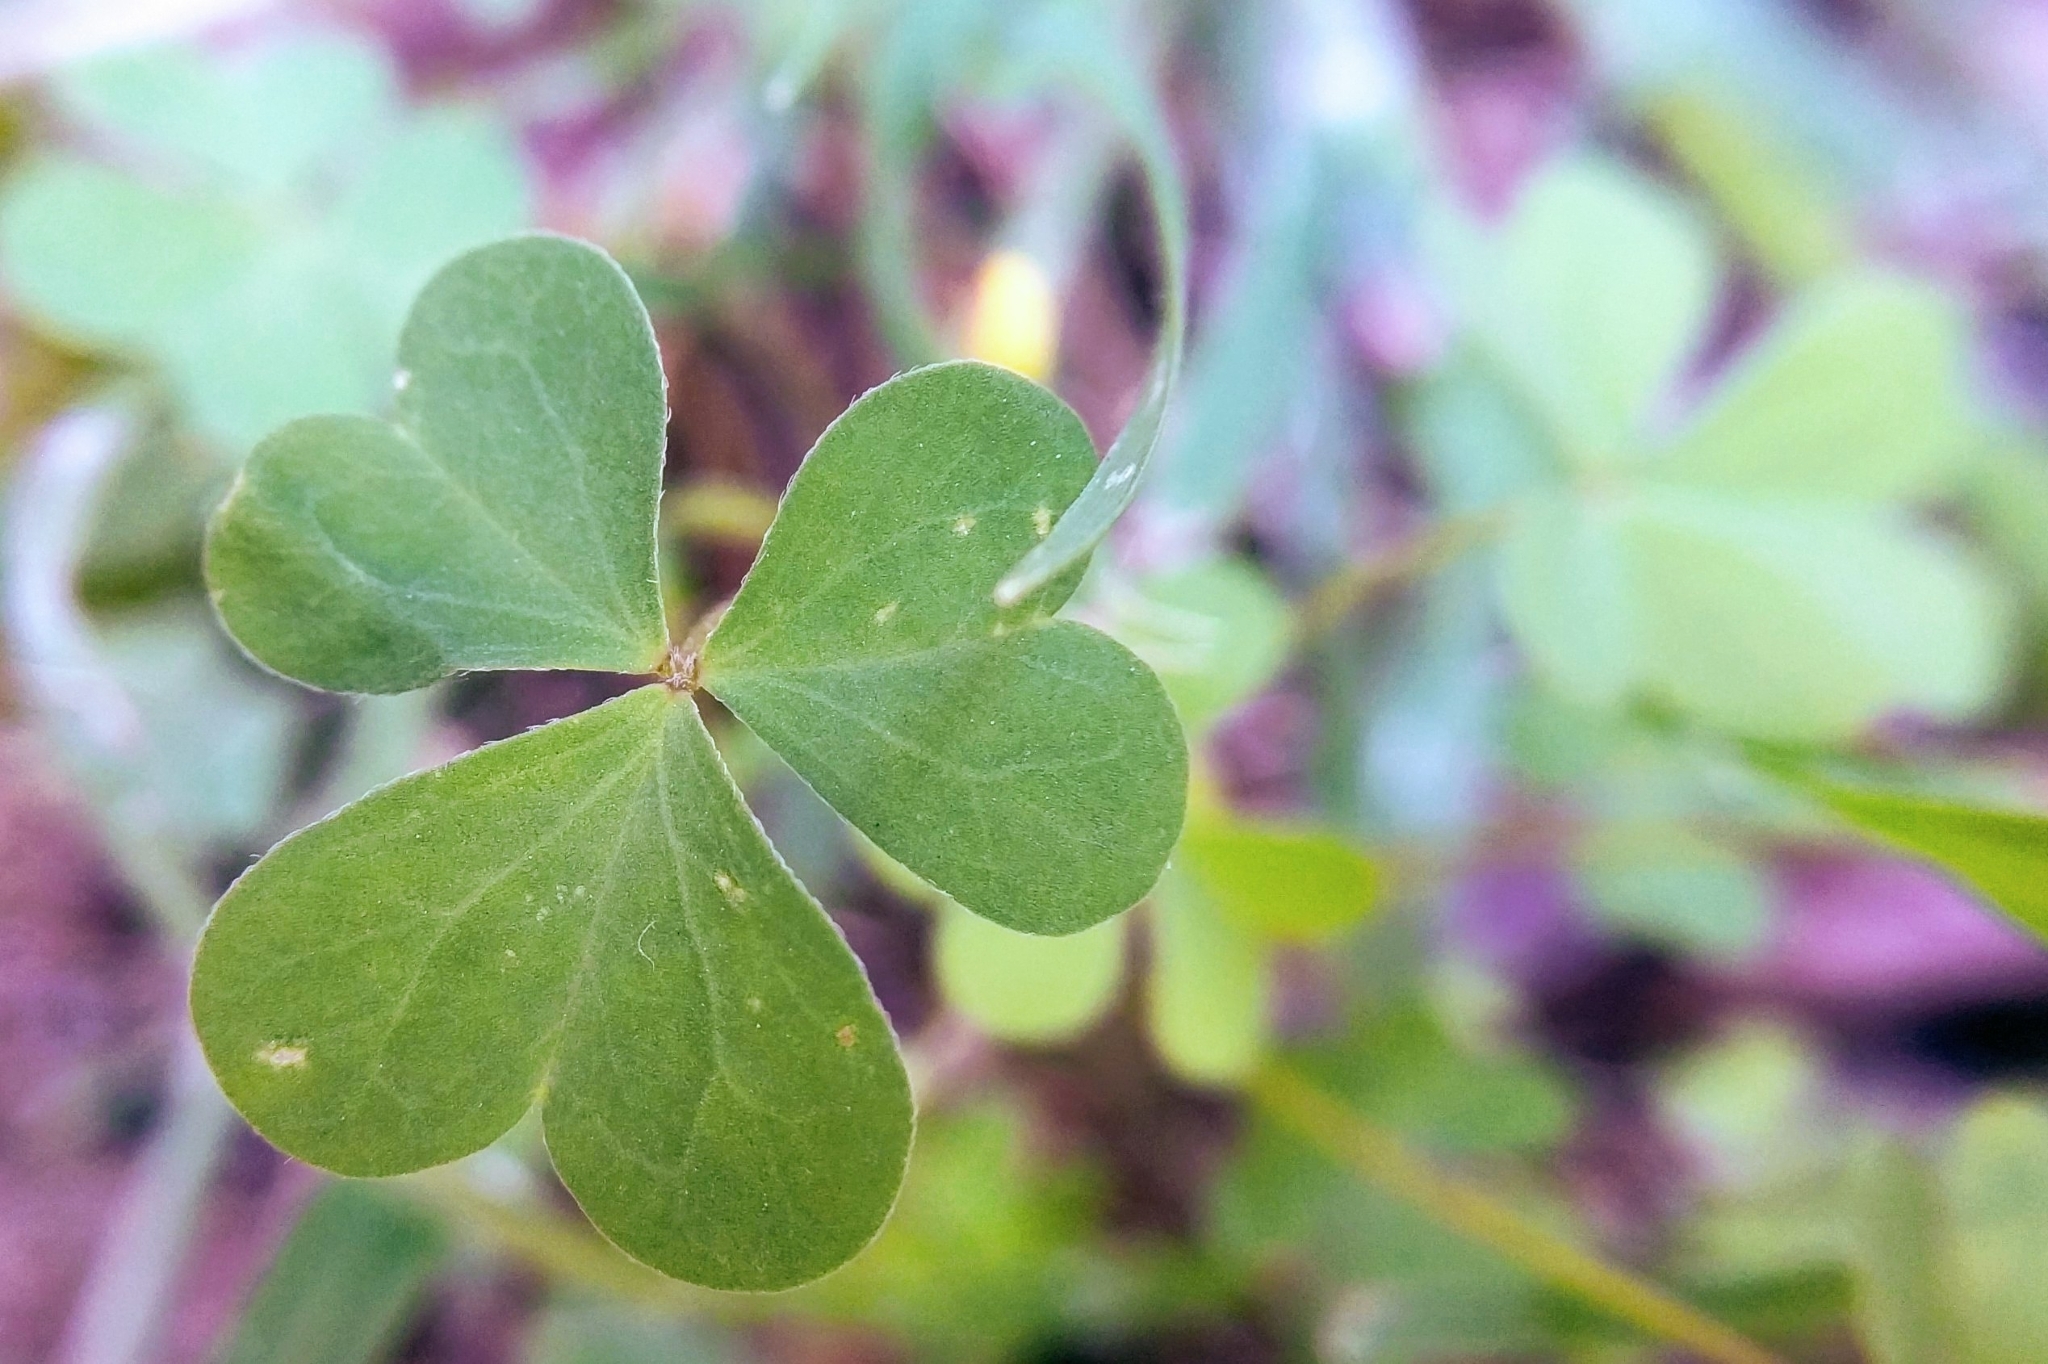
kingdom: Plantae
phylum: Tracheophyta
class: Magnoliopsida
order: Oxalidales
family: Oxalidaceae
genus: Oxalis
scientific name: Oxalis
